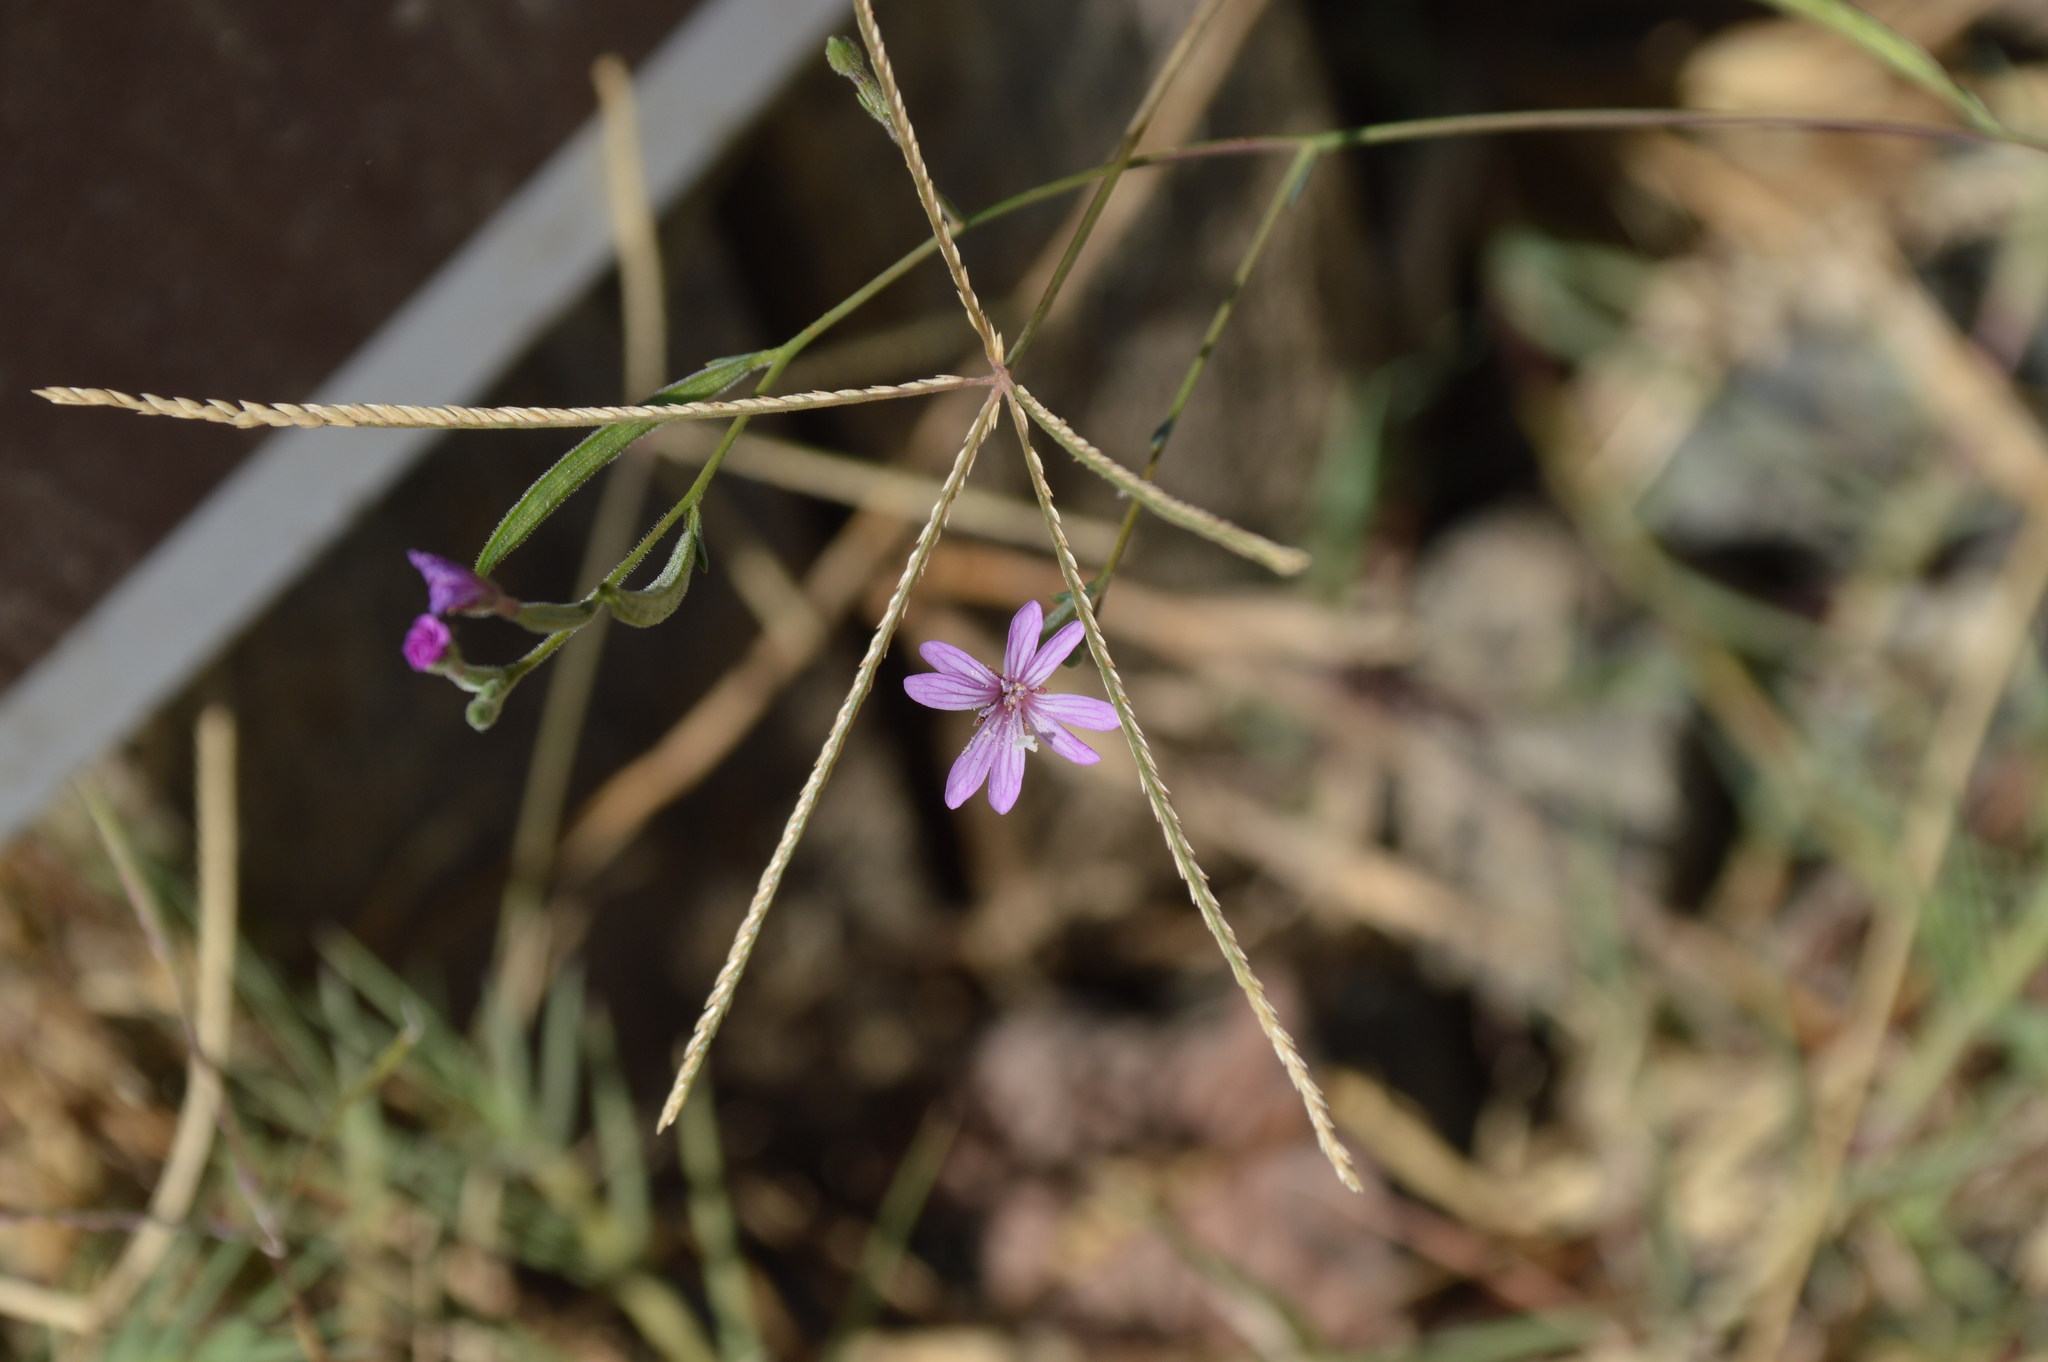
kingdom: Plantae
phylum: Tracheophyta
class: Magnoliopsida
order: Myrtales
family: Onagraceae
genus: Epilobium
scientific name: Epilobium brachycarpum
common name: Annual willowherb
